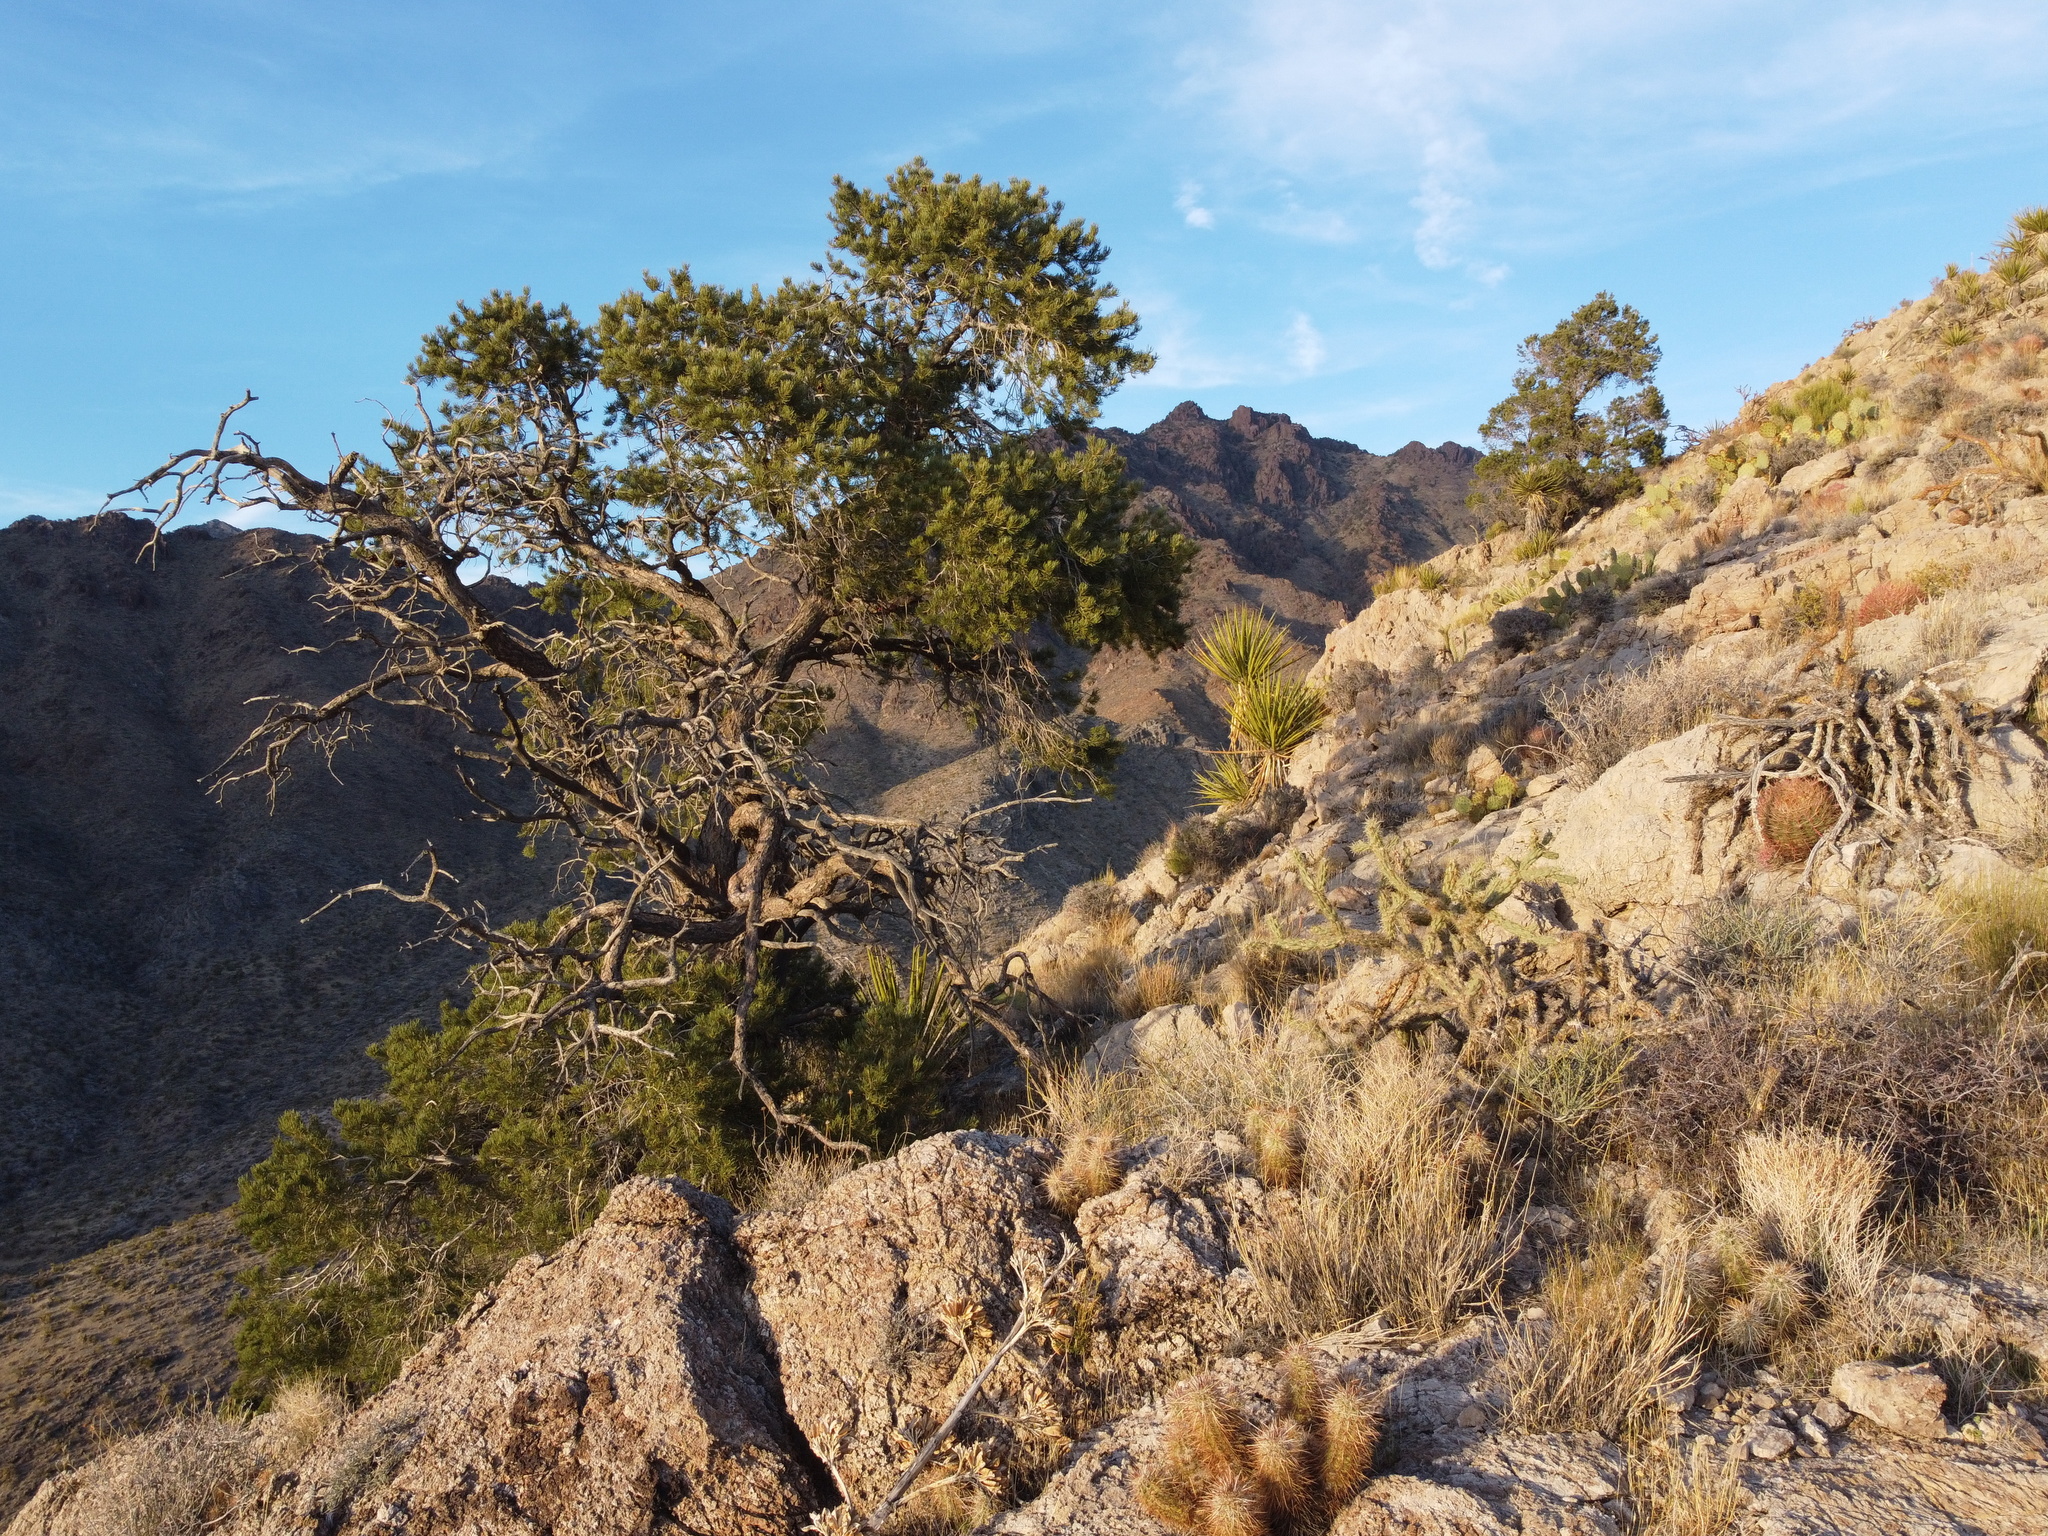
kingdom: Plantae
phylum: Tracheophyta
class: Pinopsida
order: Pinales
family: Pinaceae
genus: Pinus
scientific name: Pinus monophylla
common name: One-leaved nut pine
